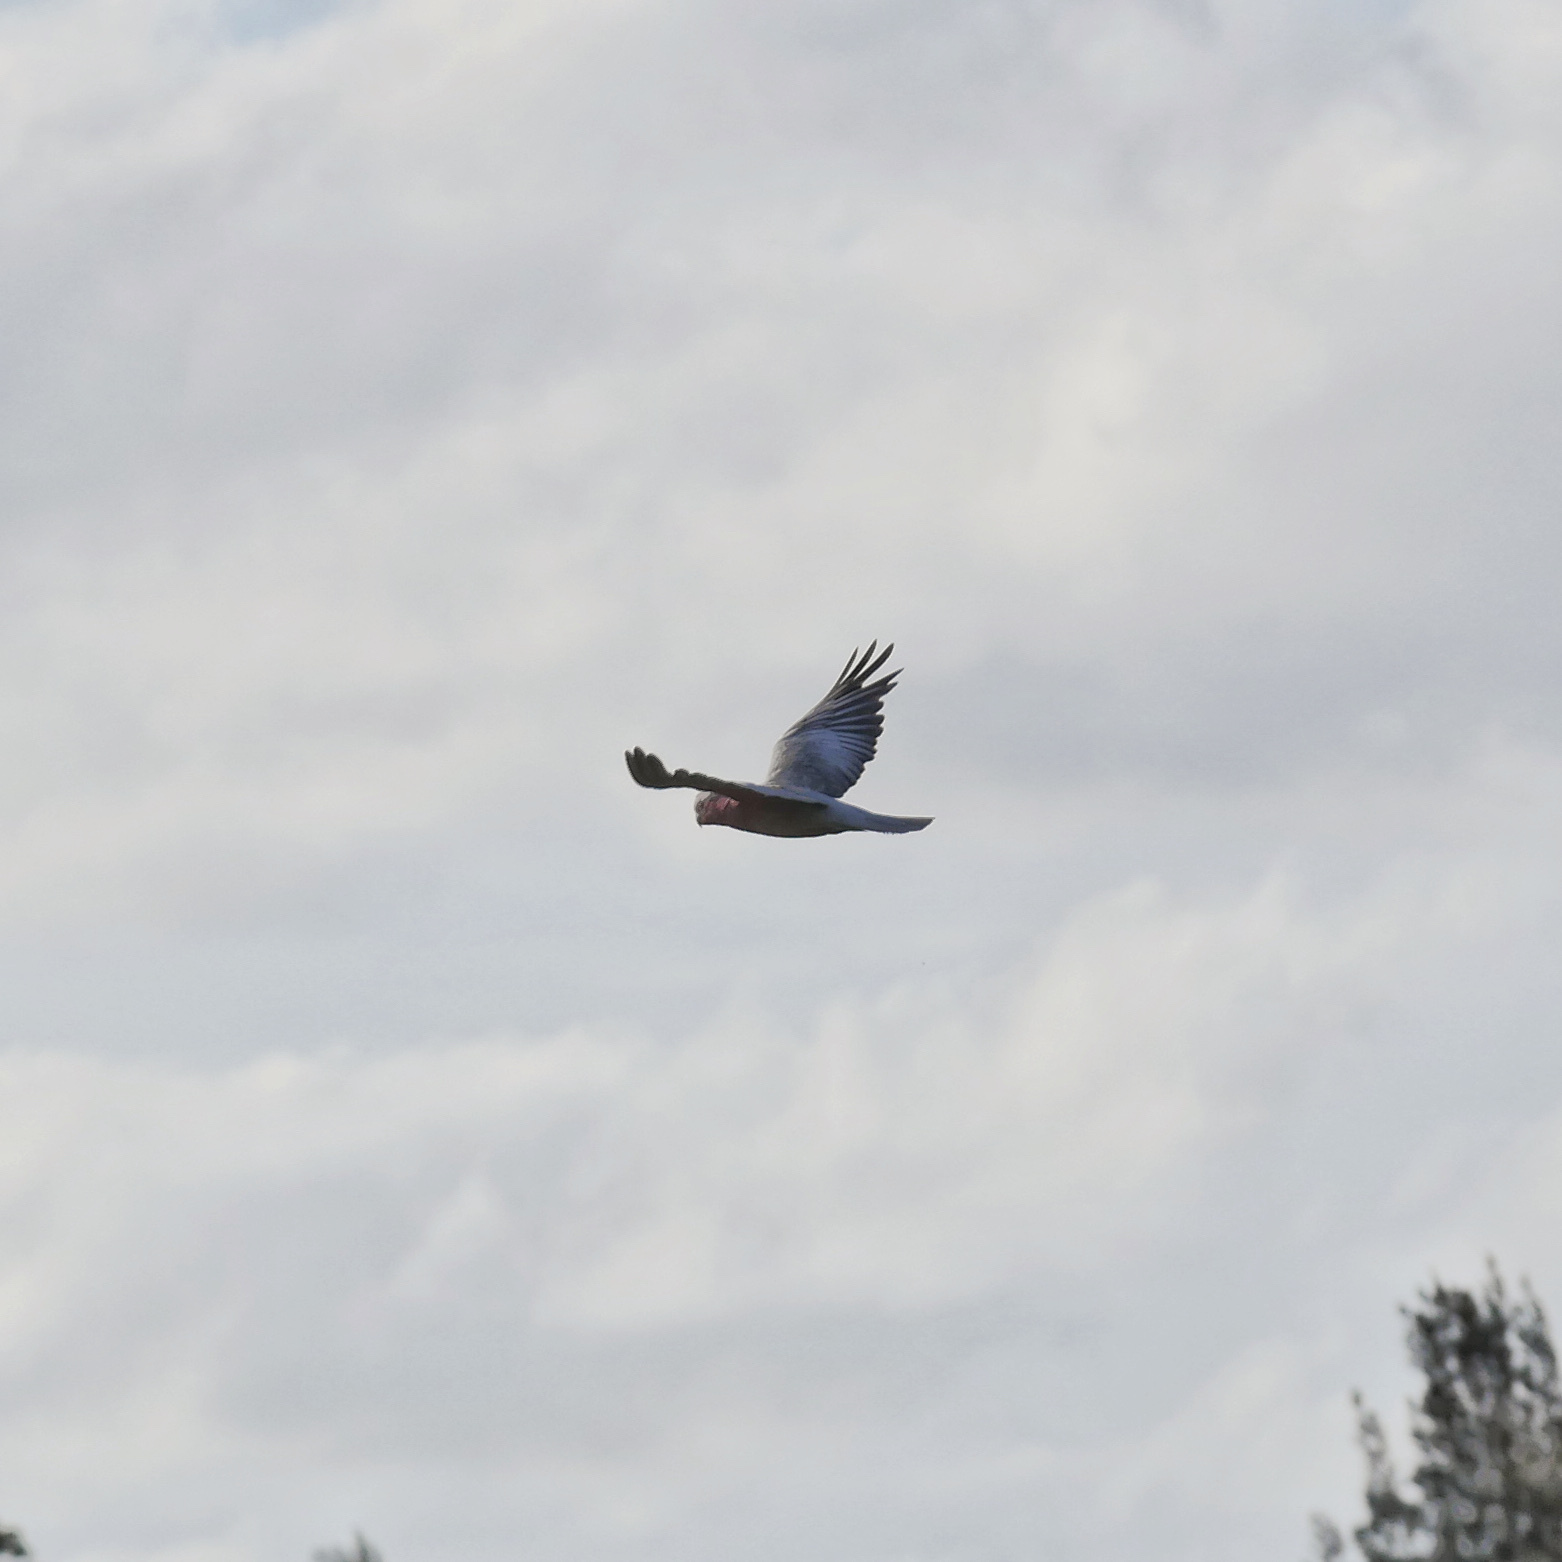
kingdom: Animalia
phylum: Chordata
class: Aves
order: Psittaciformes
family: Psittacidae
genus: Eolophus
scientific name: Eolophus roseicapilla
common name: Galah
